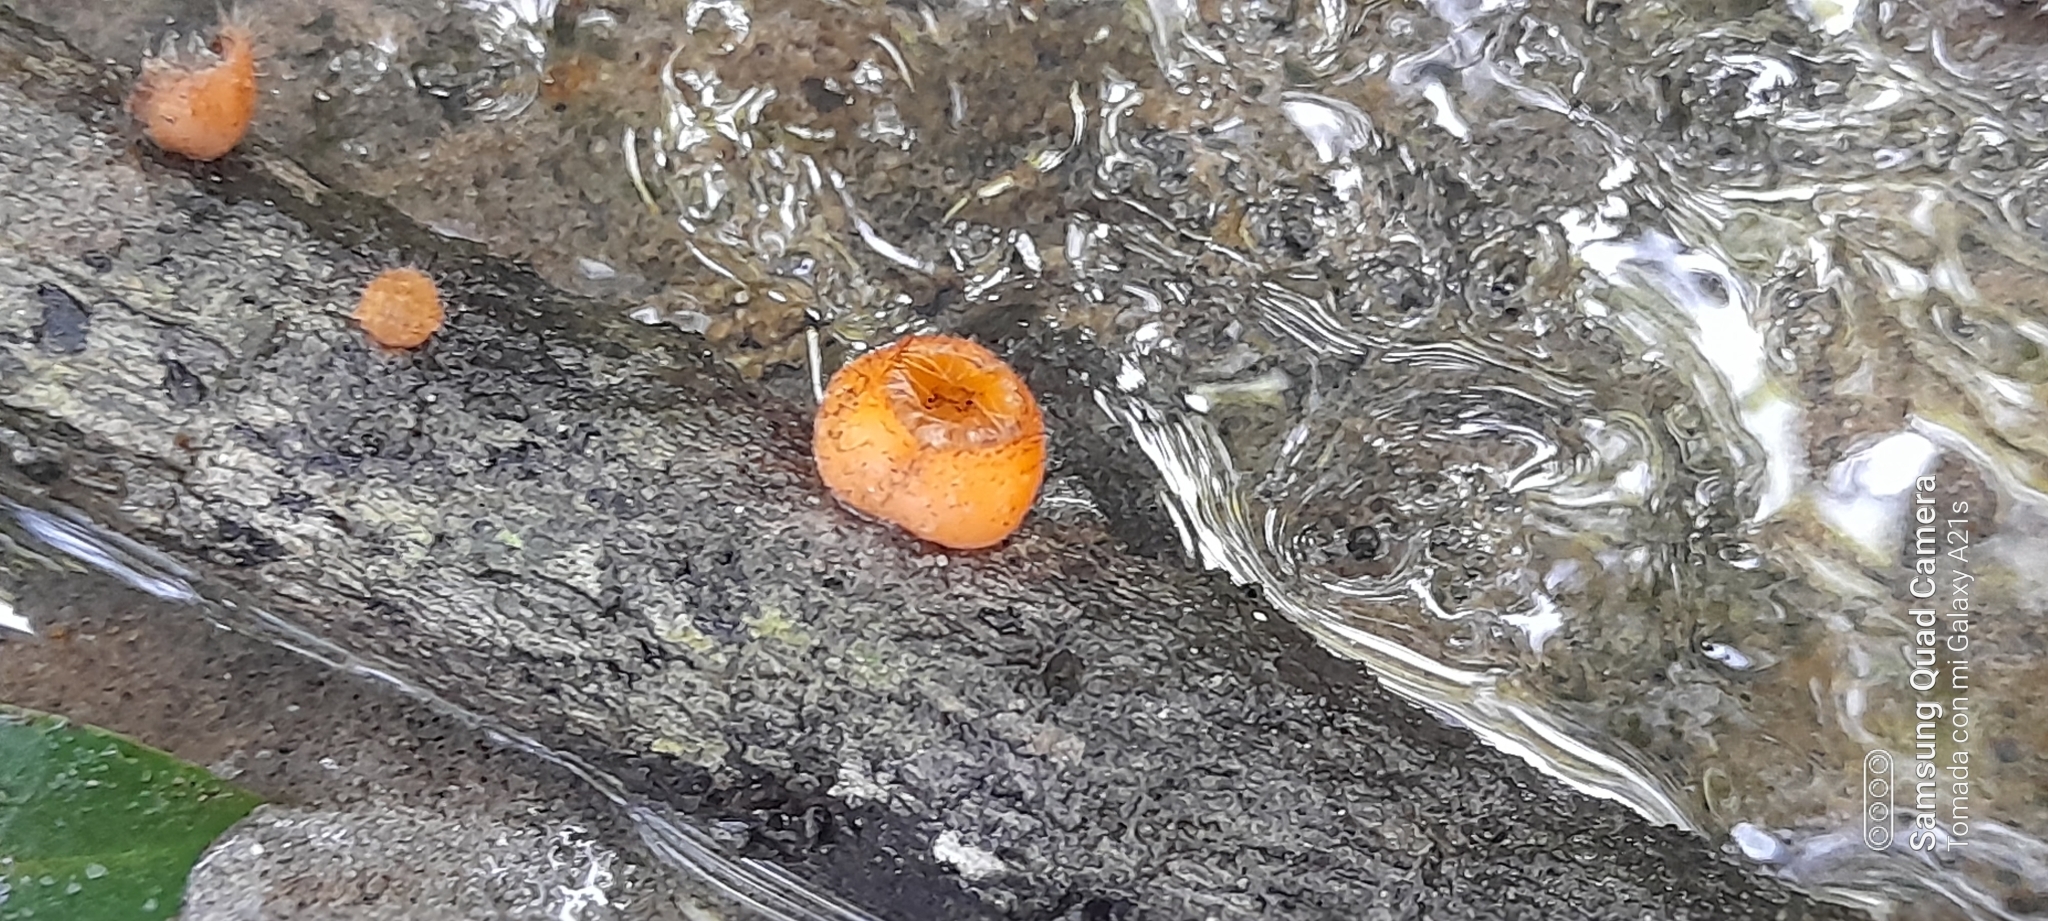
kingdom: Fungi
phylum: Ascomycota
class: Pezizomycetes
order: Pezizales
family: Sarcoscyphaceae
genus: Cookeina
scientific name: Cookeina tricholoma
